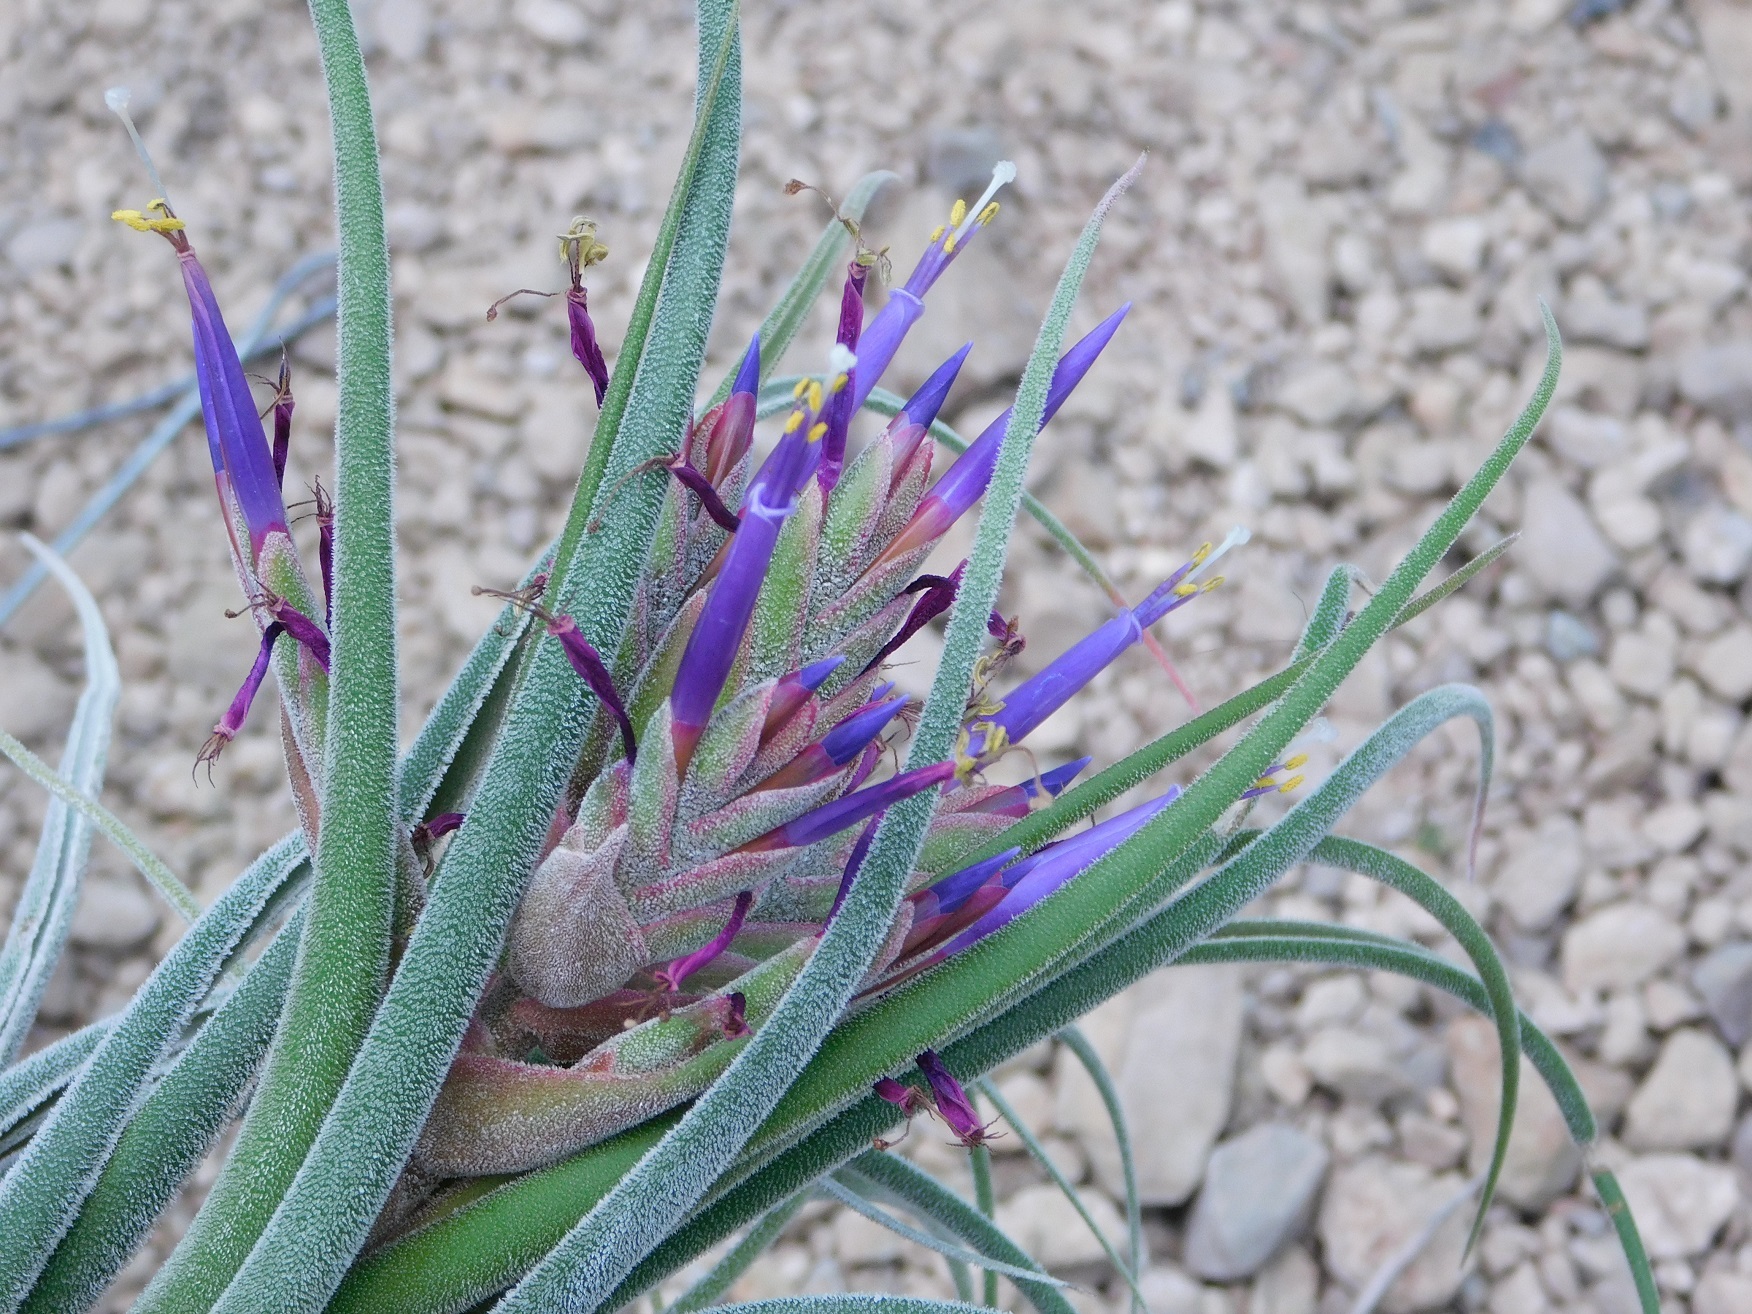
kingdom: Plantae
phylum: Tracheophyta
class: Liliopsida
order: Poales
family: Bromeliaceae
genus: Tillandsia
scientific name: Tillandsia seleriana
